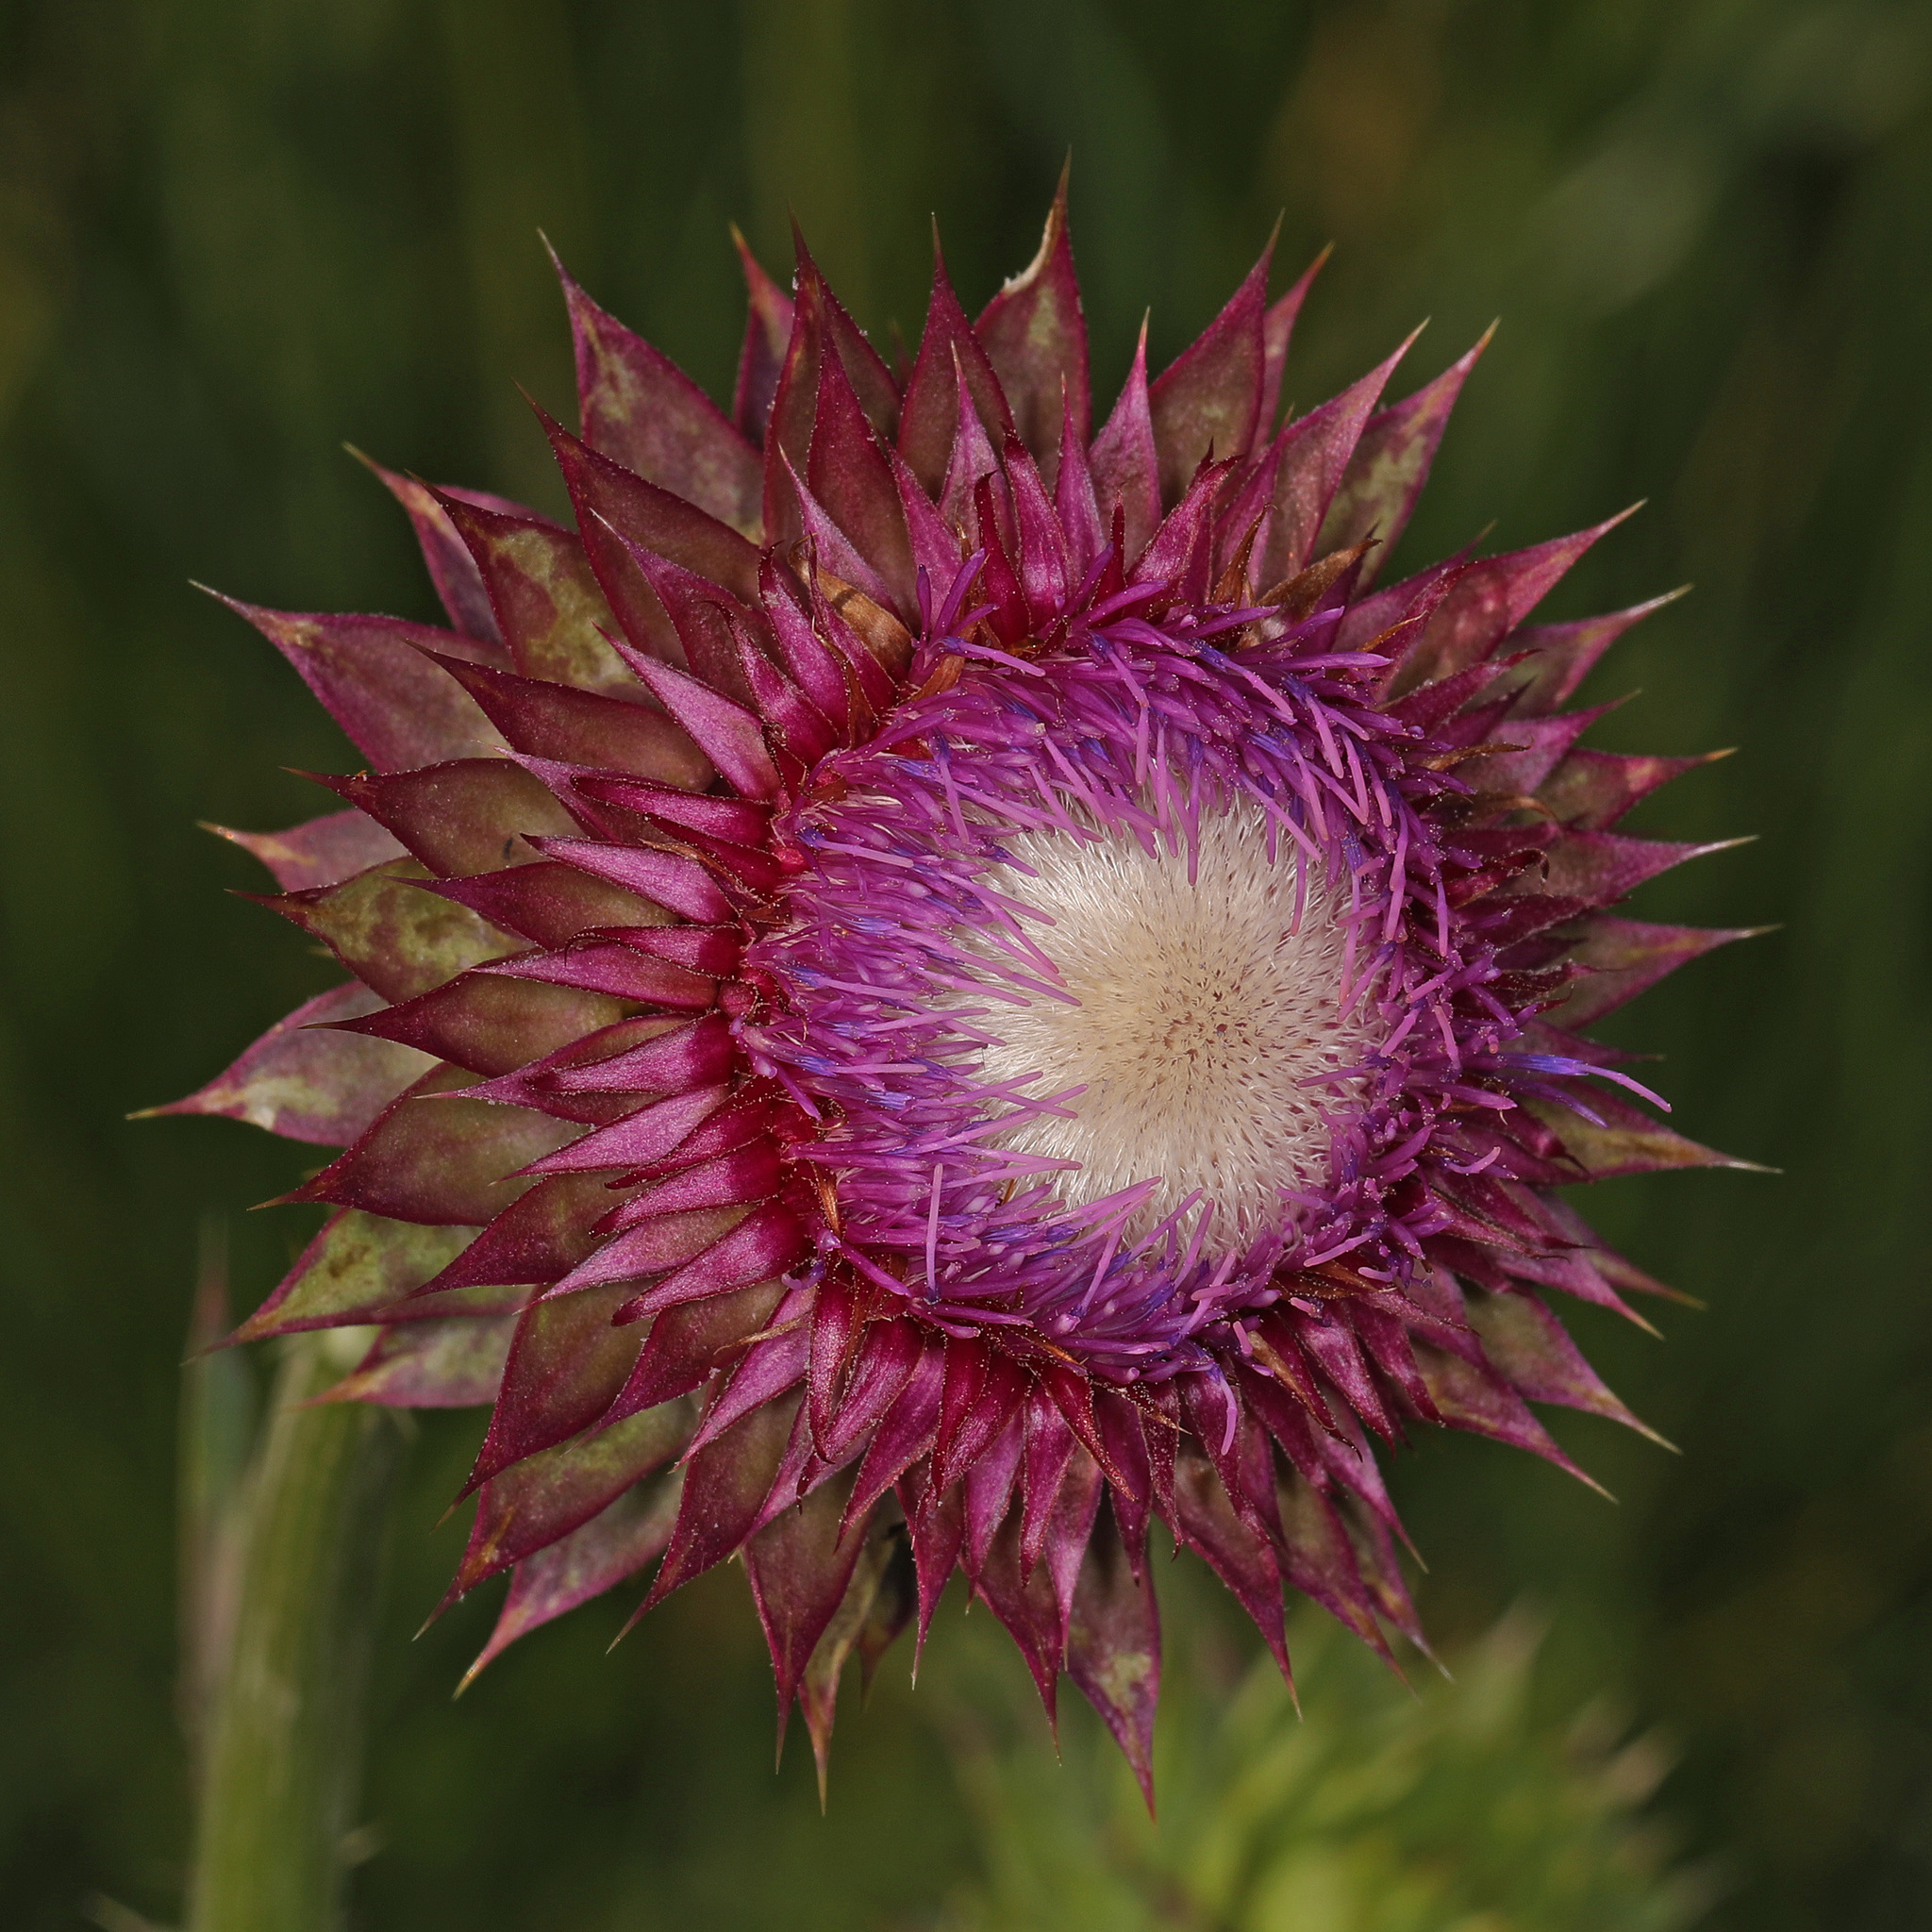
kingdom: Plantae
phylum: Tracheophyta
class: Magnoliopsida
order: Asterales
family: Asteraceae
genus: Carduus
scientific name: Carduus nutans
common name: Musk thistle
